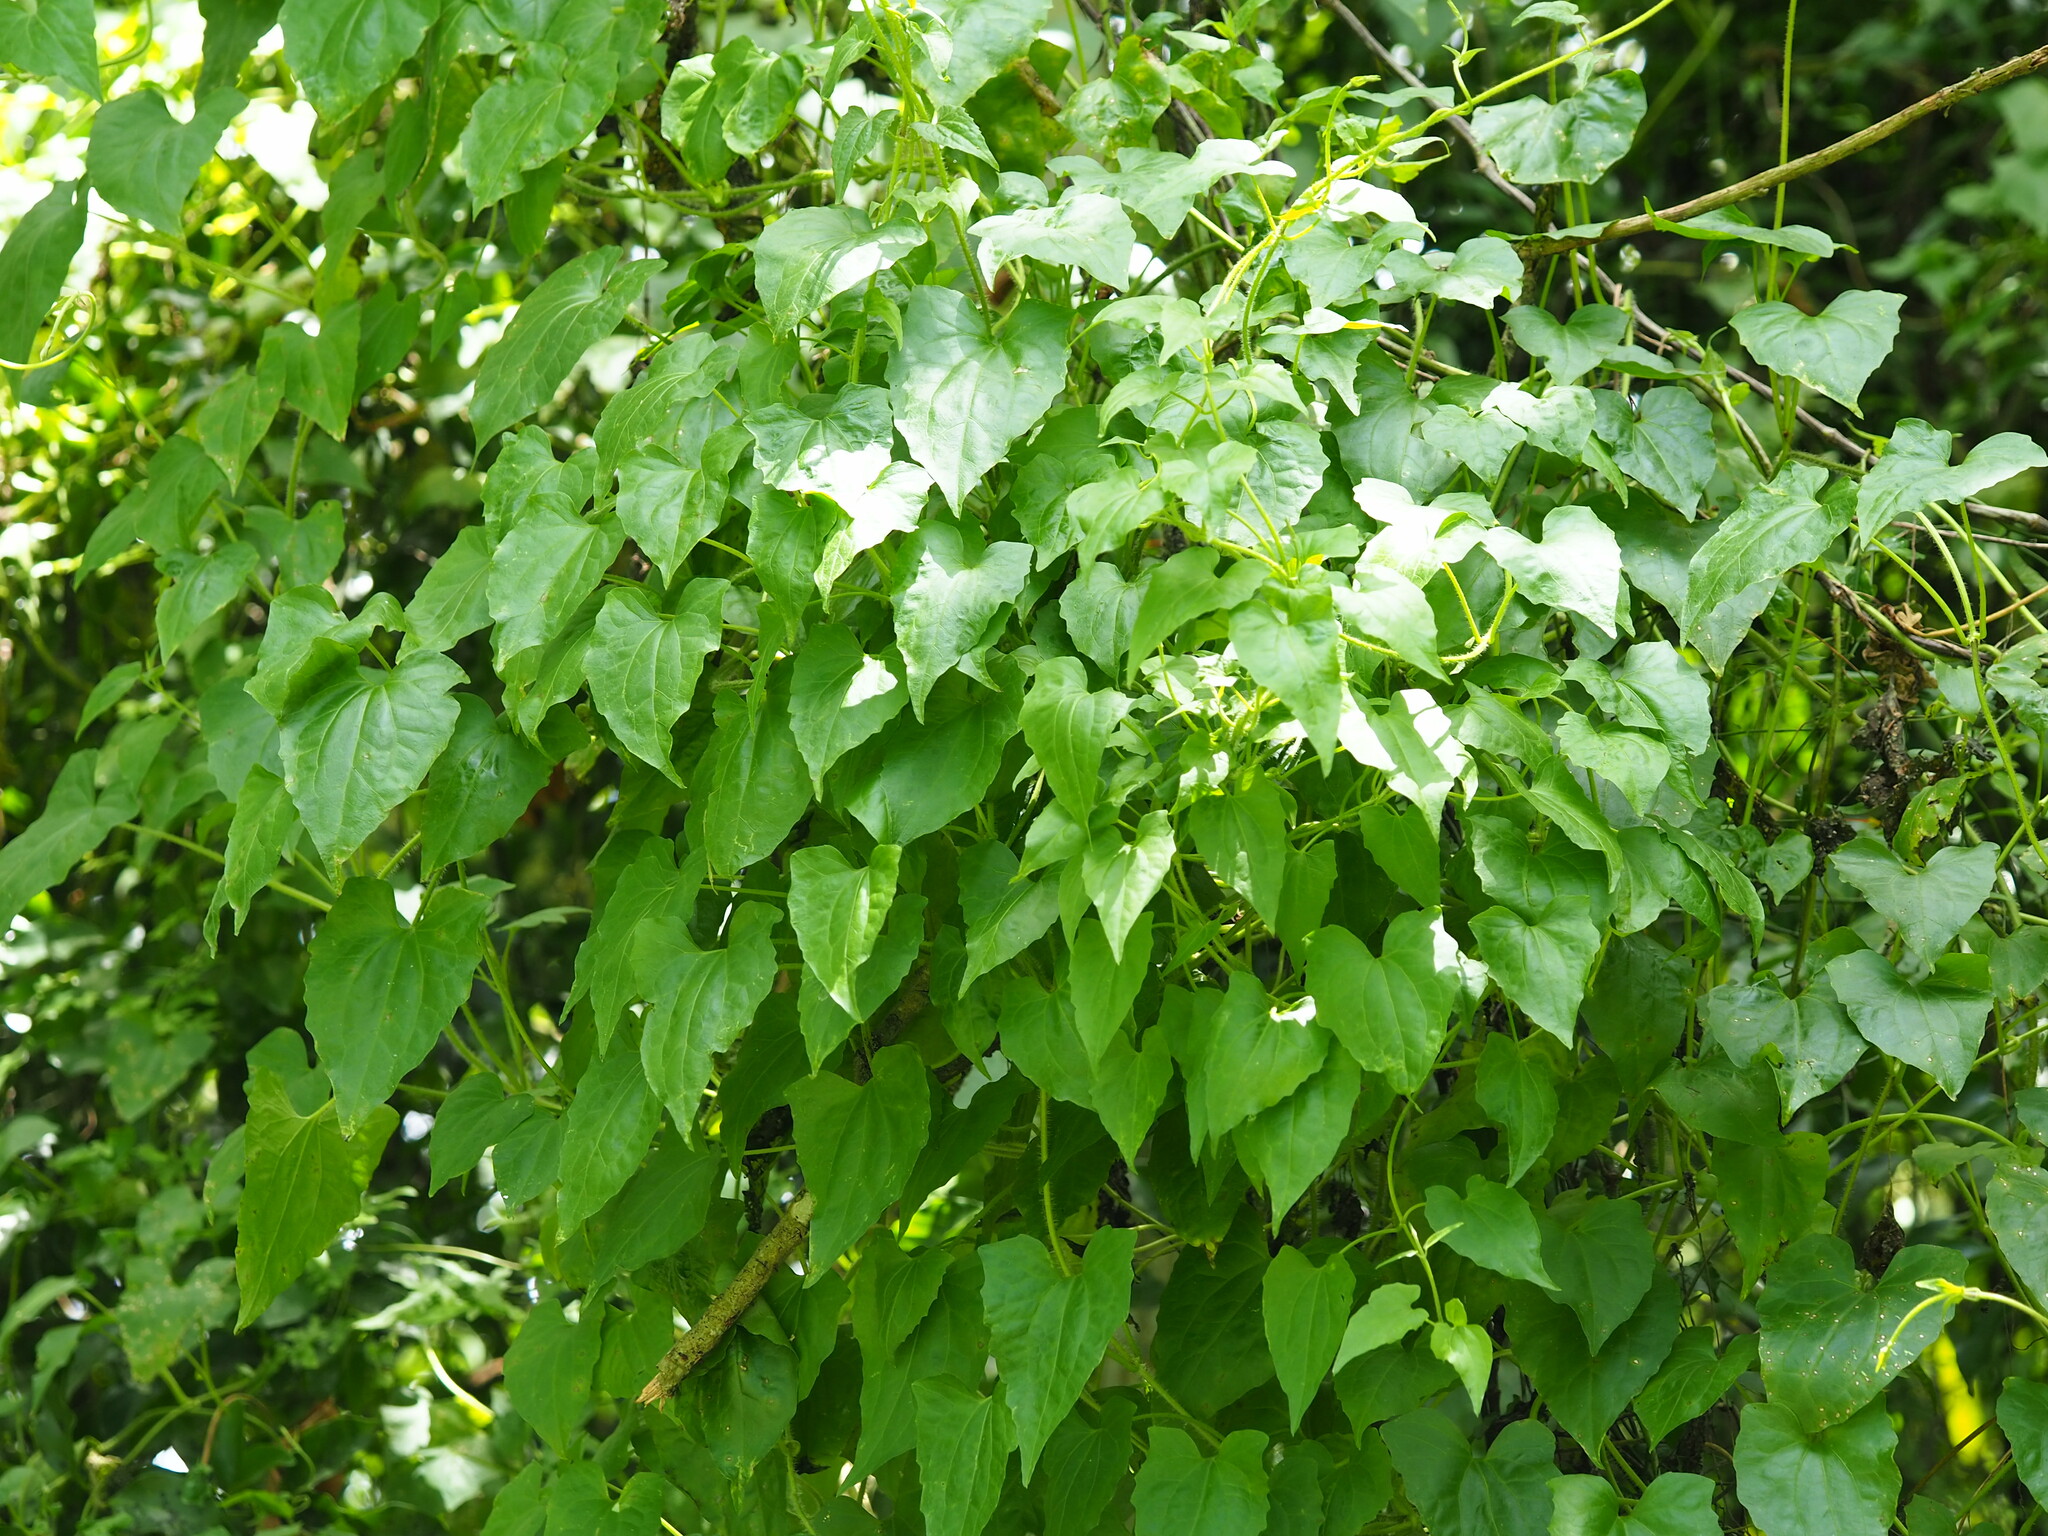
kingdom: Plantae
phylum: Tracheophyta
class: Magnoliopsida
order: Asterales
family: Asteraceae
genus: Mikania
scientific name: Mikania micrantha
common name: Mile-a-minute
